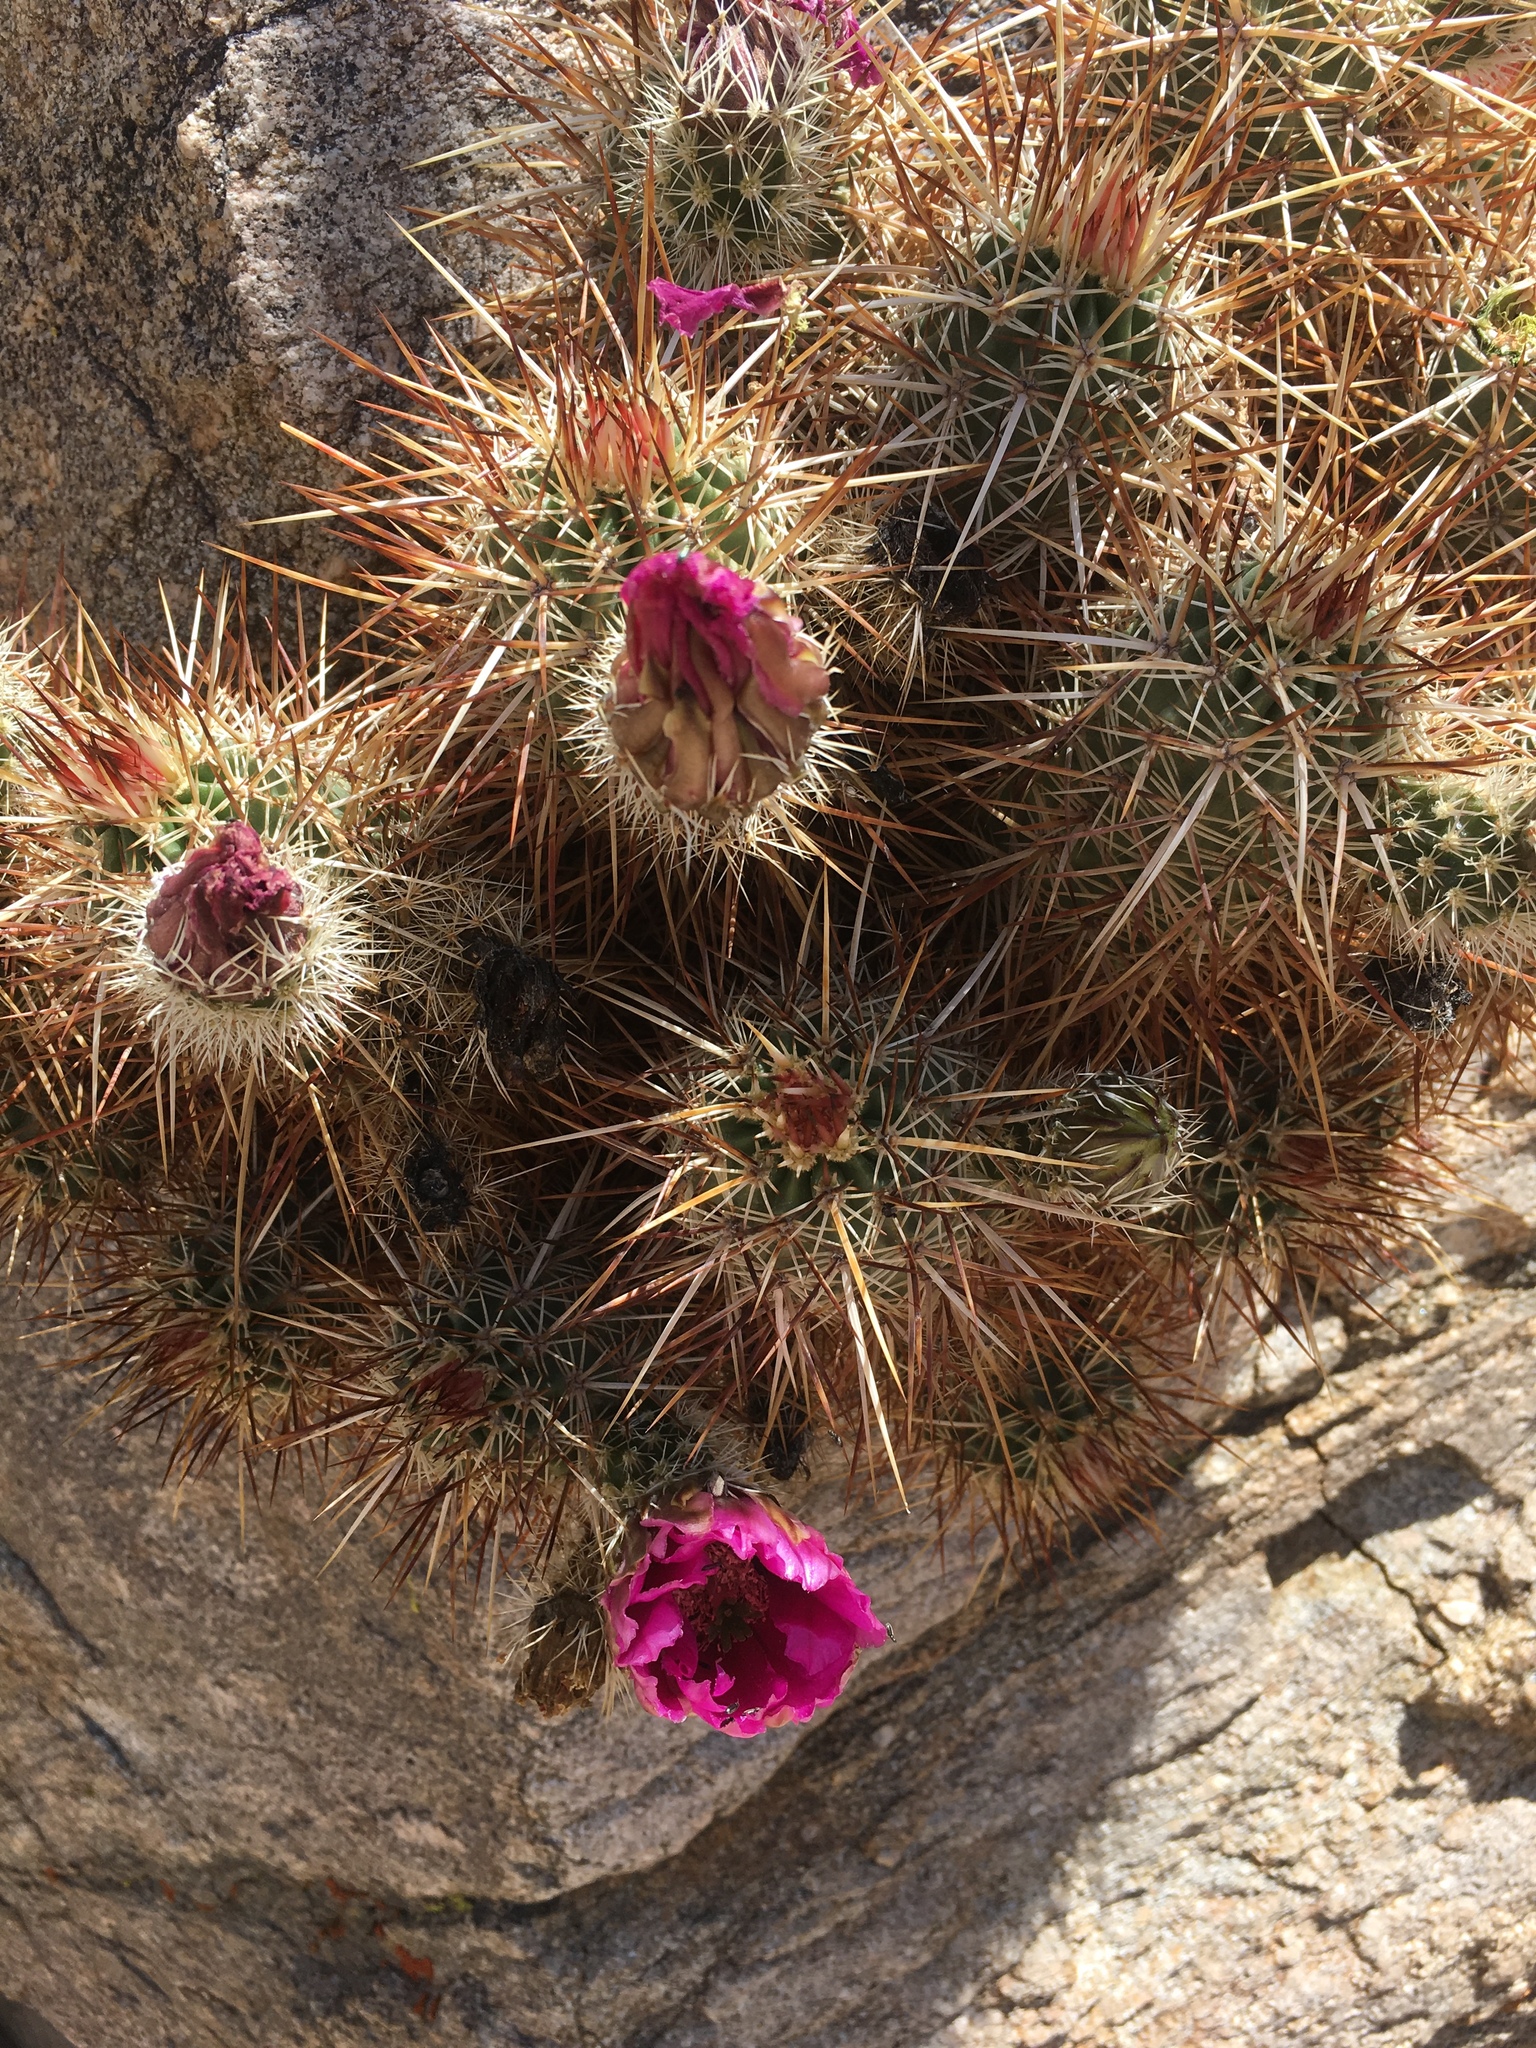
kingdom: Plantae
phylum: Tracheophyta
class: Magnoliopsida
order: Caryophyllales
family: Cactaceae
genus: Echinocereus
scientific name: Echinocereus engelmannii
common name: Engelmann's hedgehog cactus
